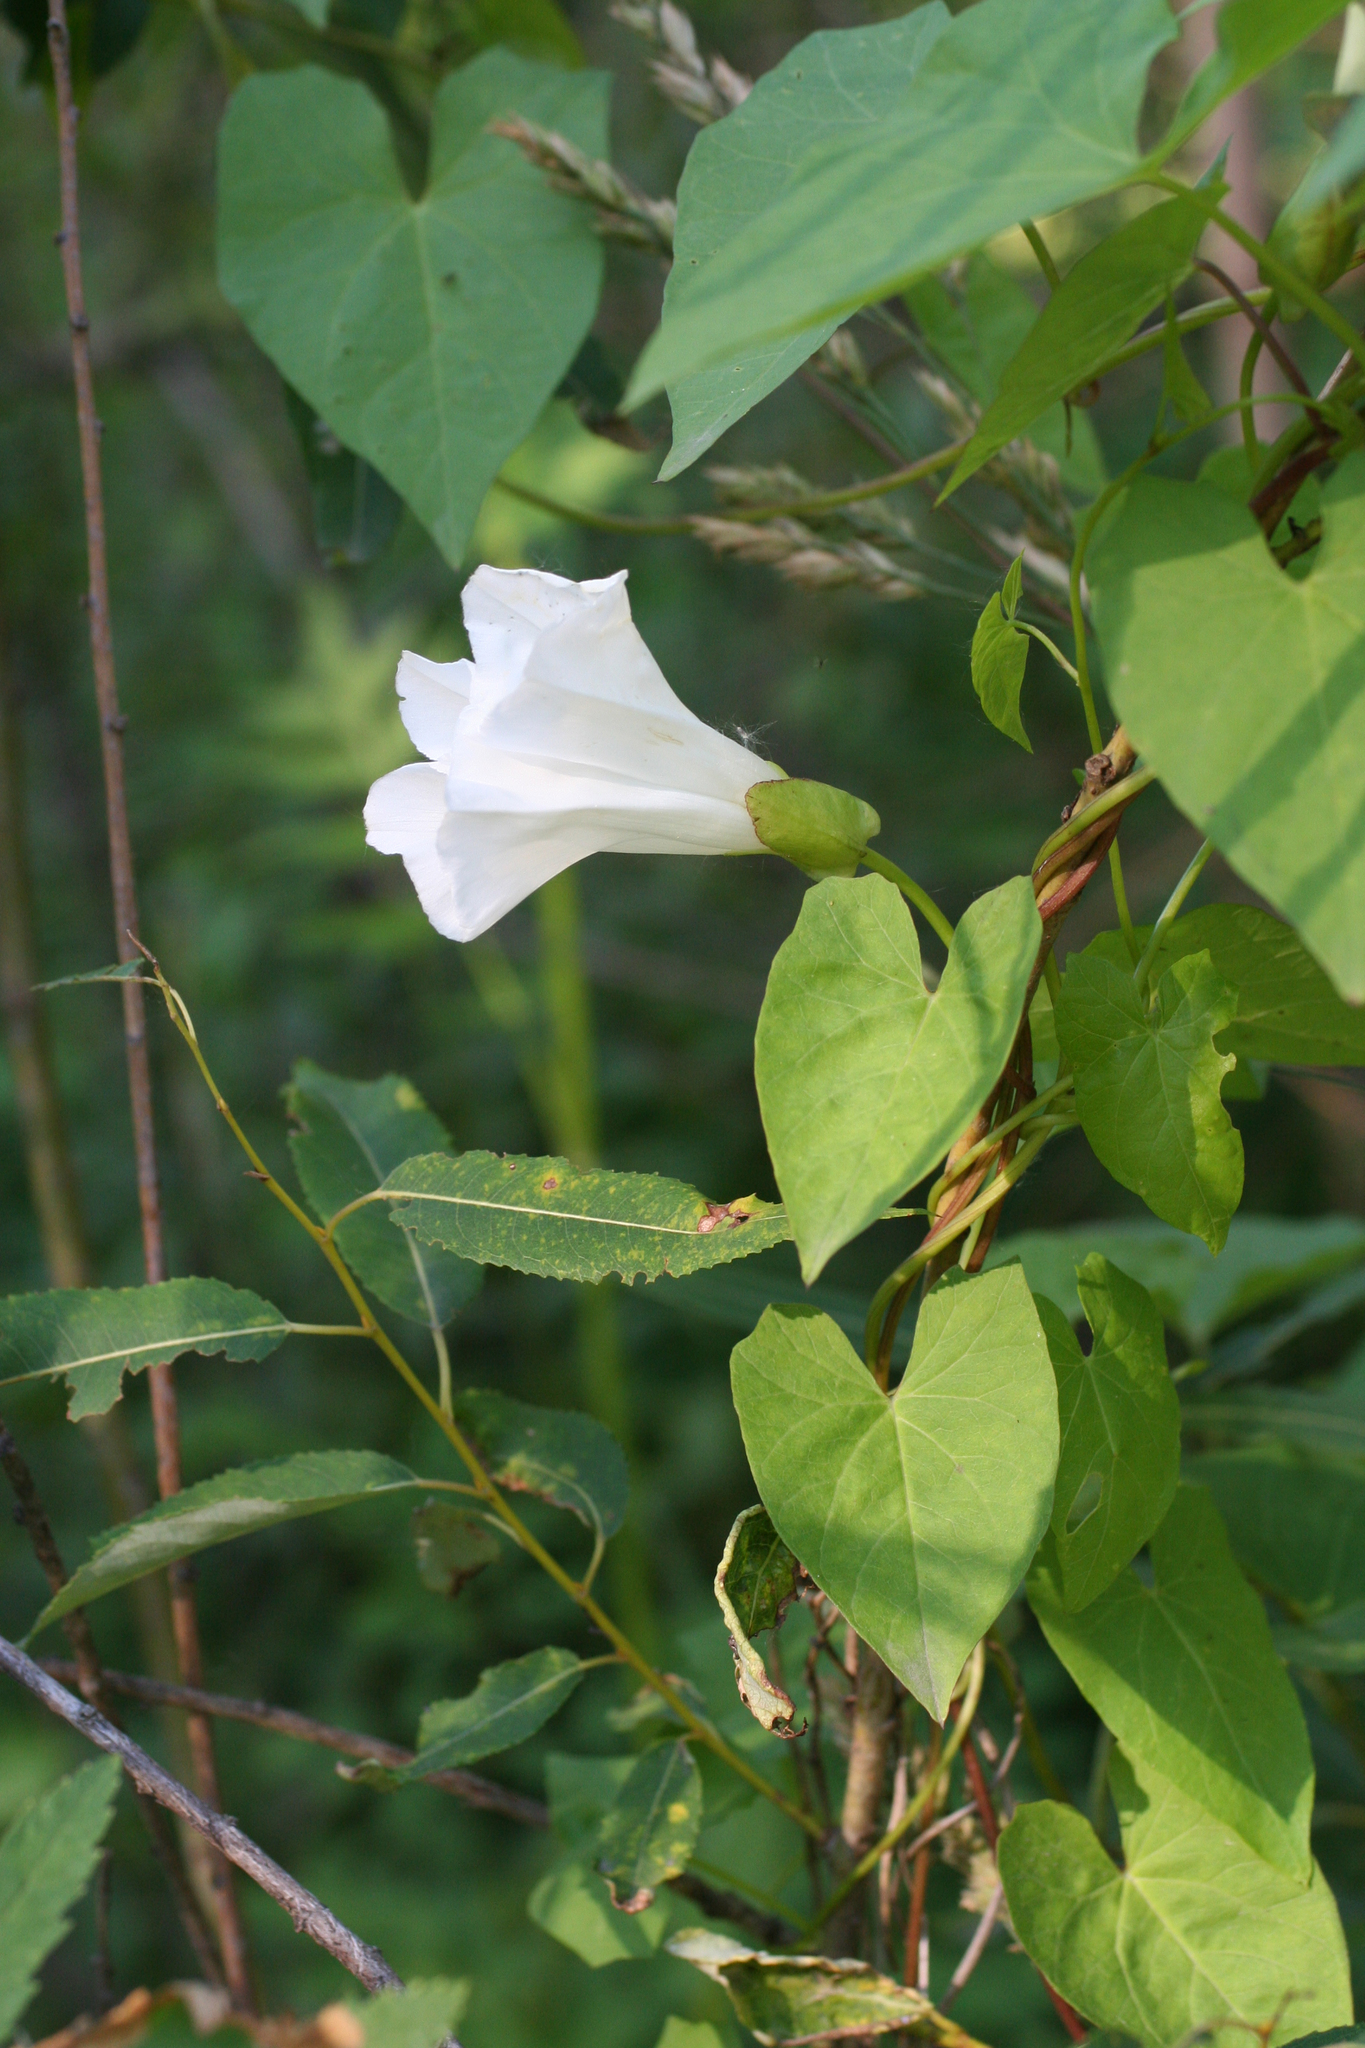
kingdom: Plantae
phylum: Tracheophyta
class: Magnoliopsida
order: Solanales
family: Convolvulaceae
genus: Calystegia
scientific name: Calystegia sepium
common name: Hedge bindweed
